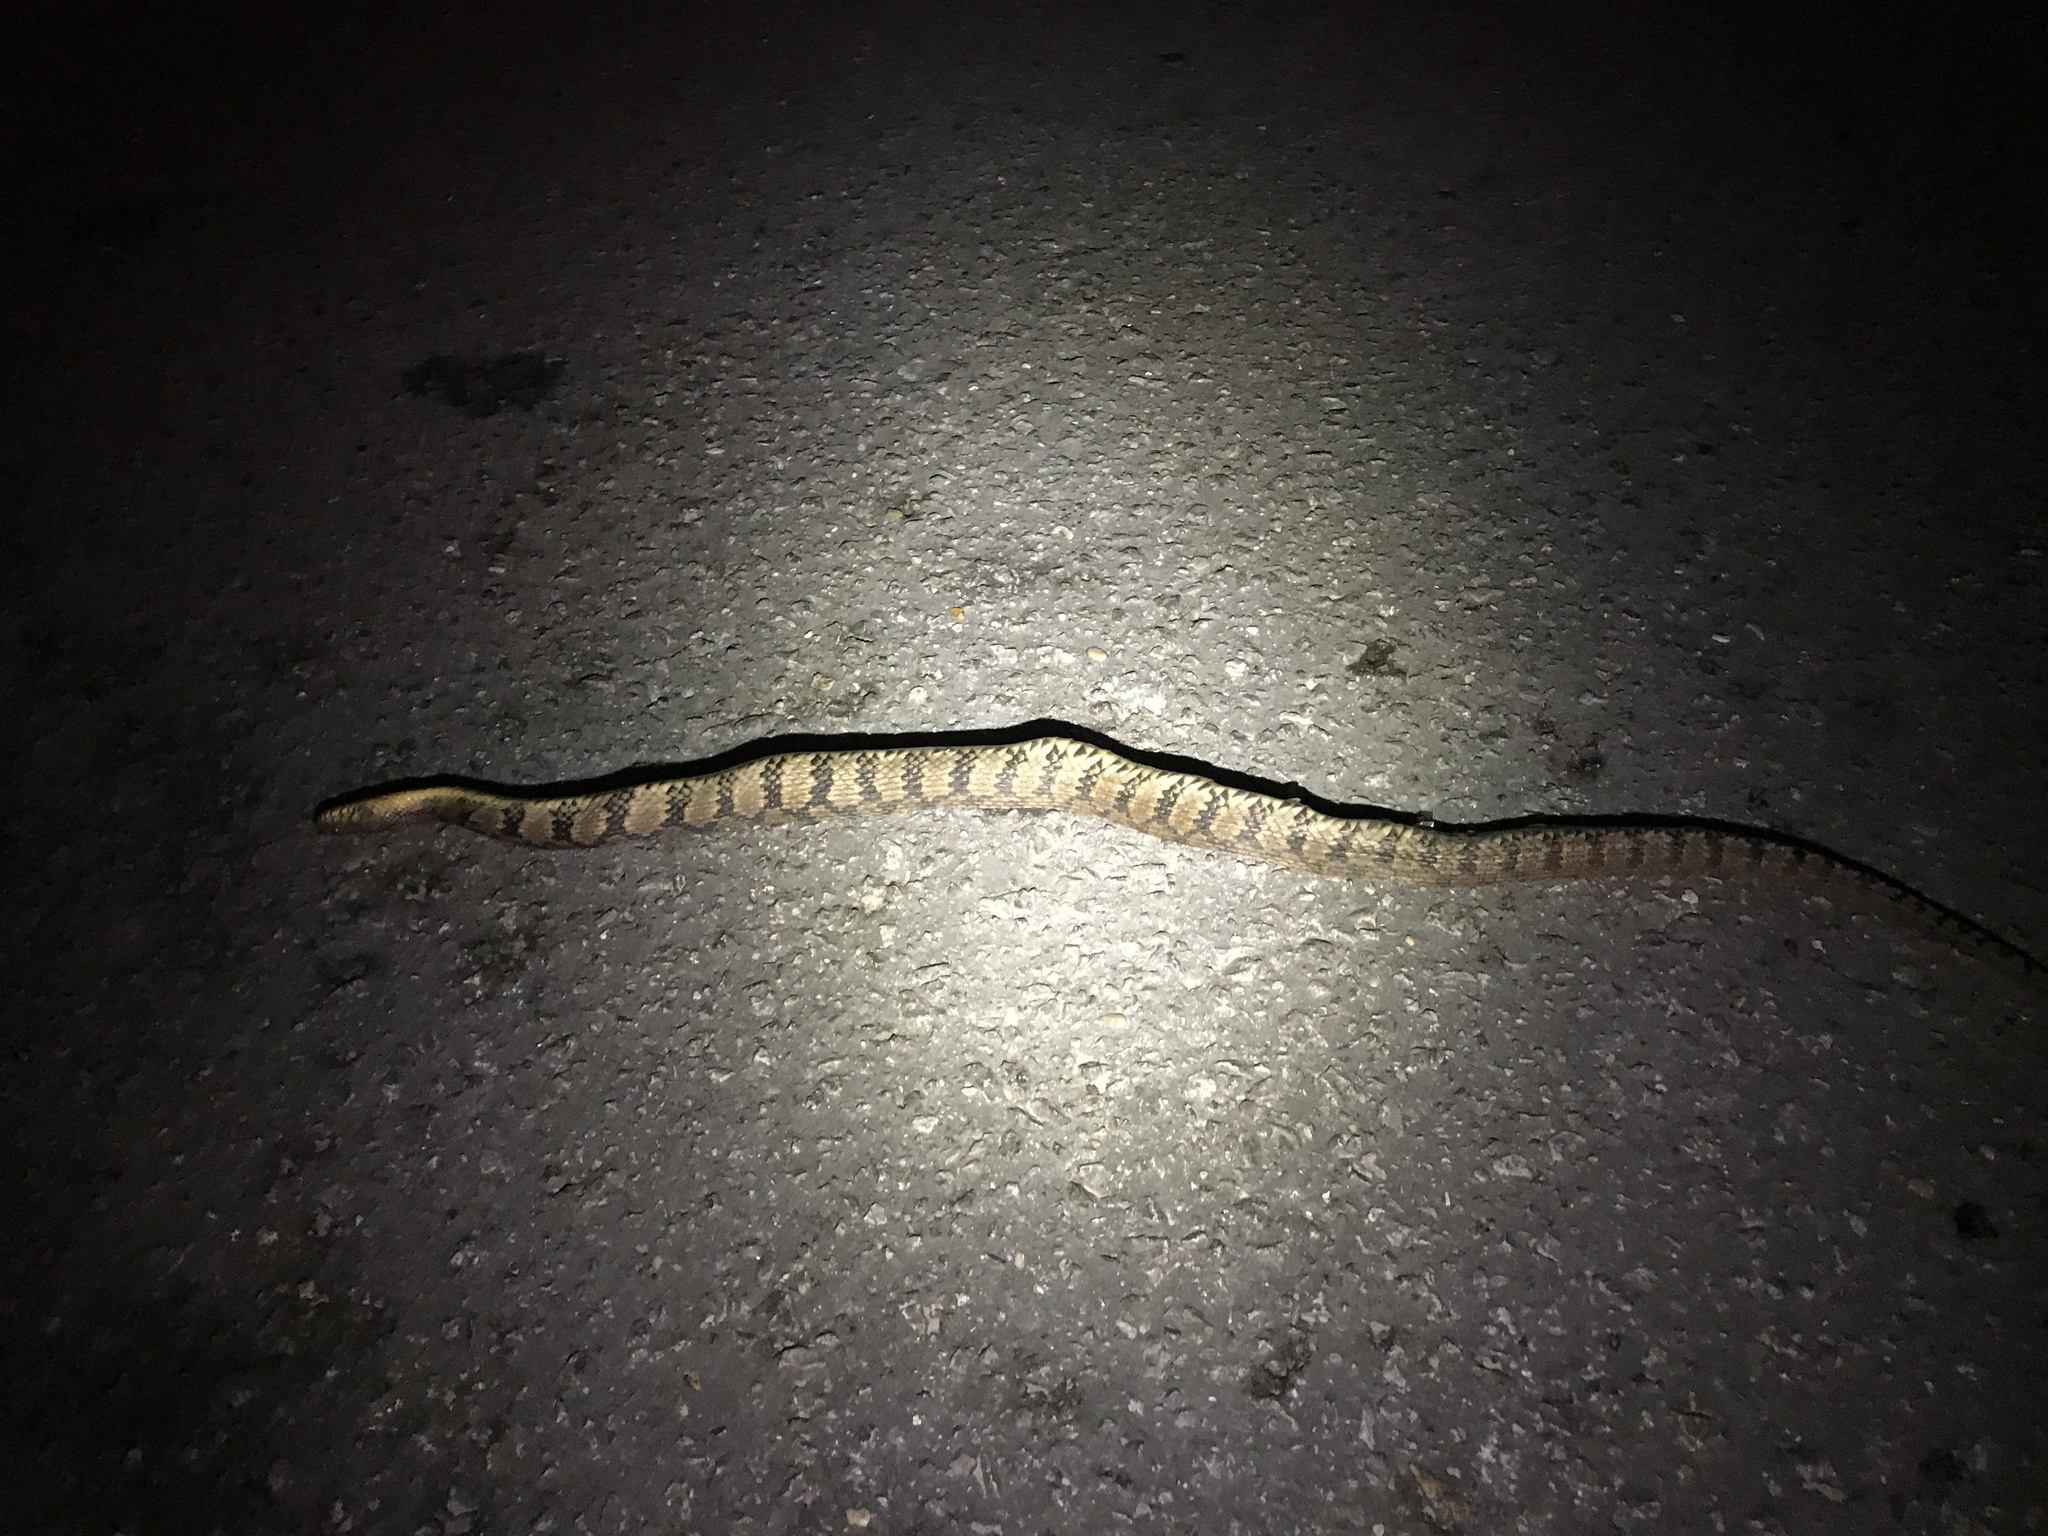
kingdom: Animalia
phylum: Chordata
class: Squamata
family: Colubridae
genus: Nerodia
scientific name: Nerodia rhombifer
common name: Diamondback water snake
